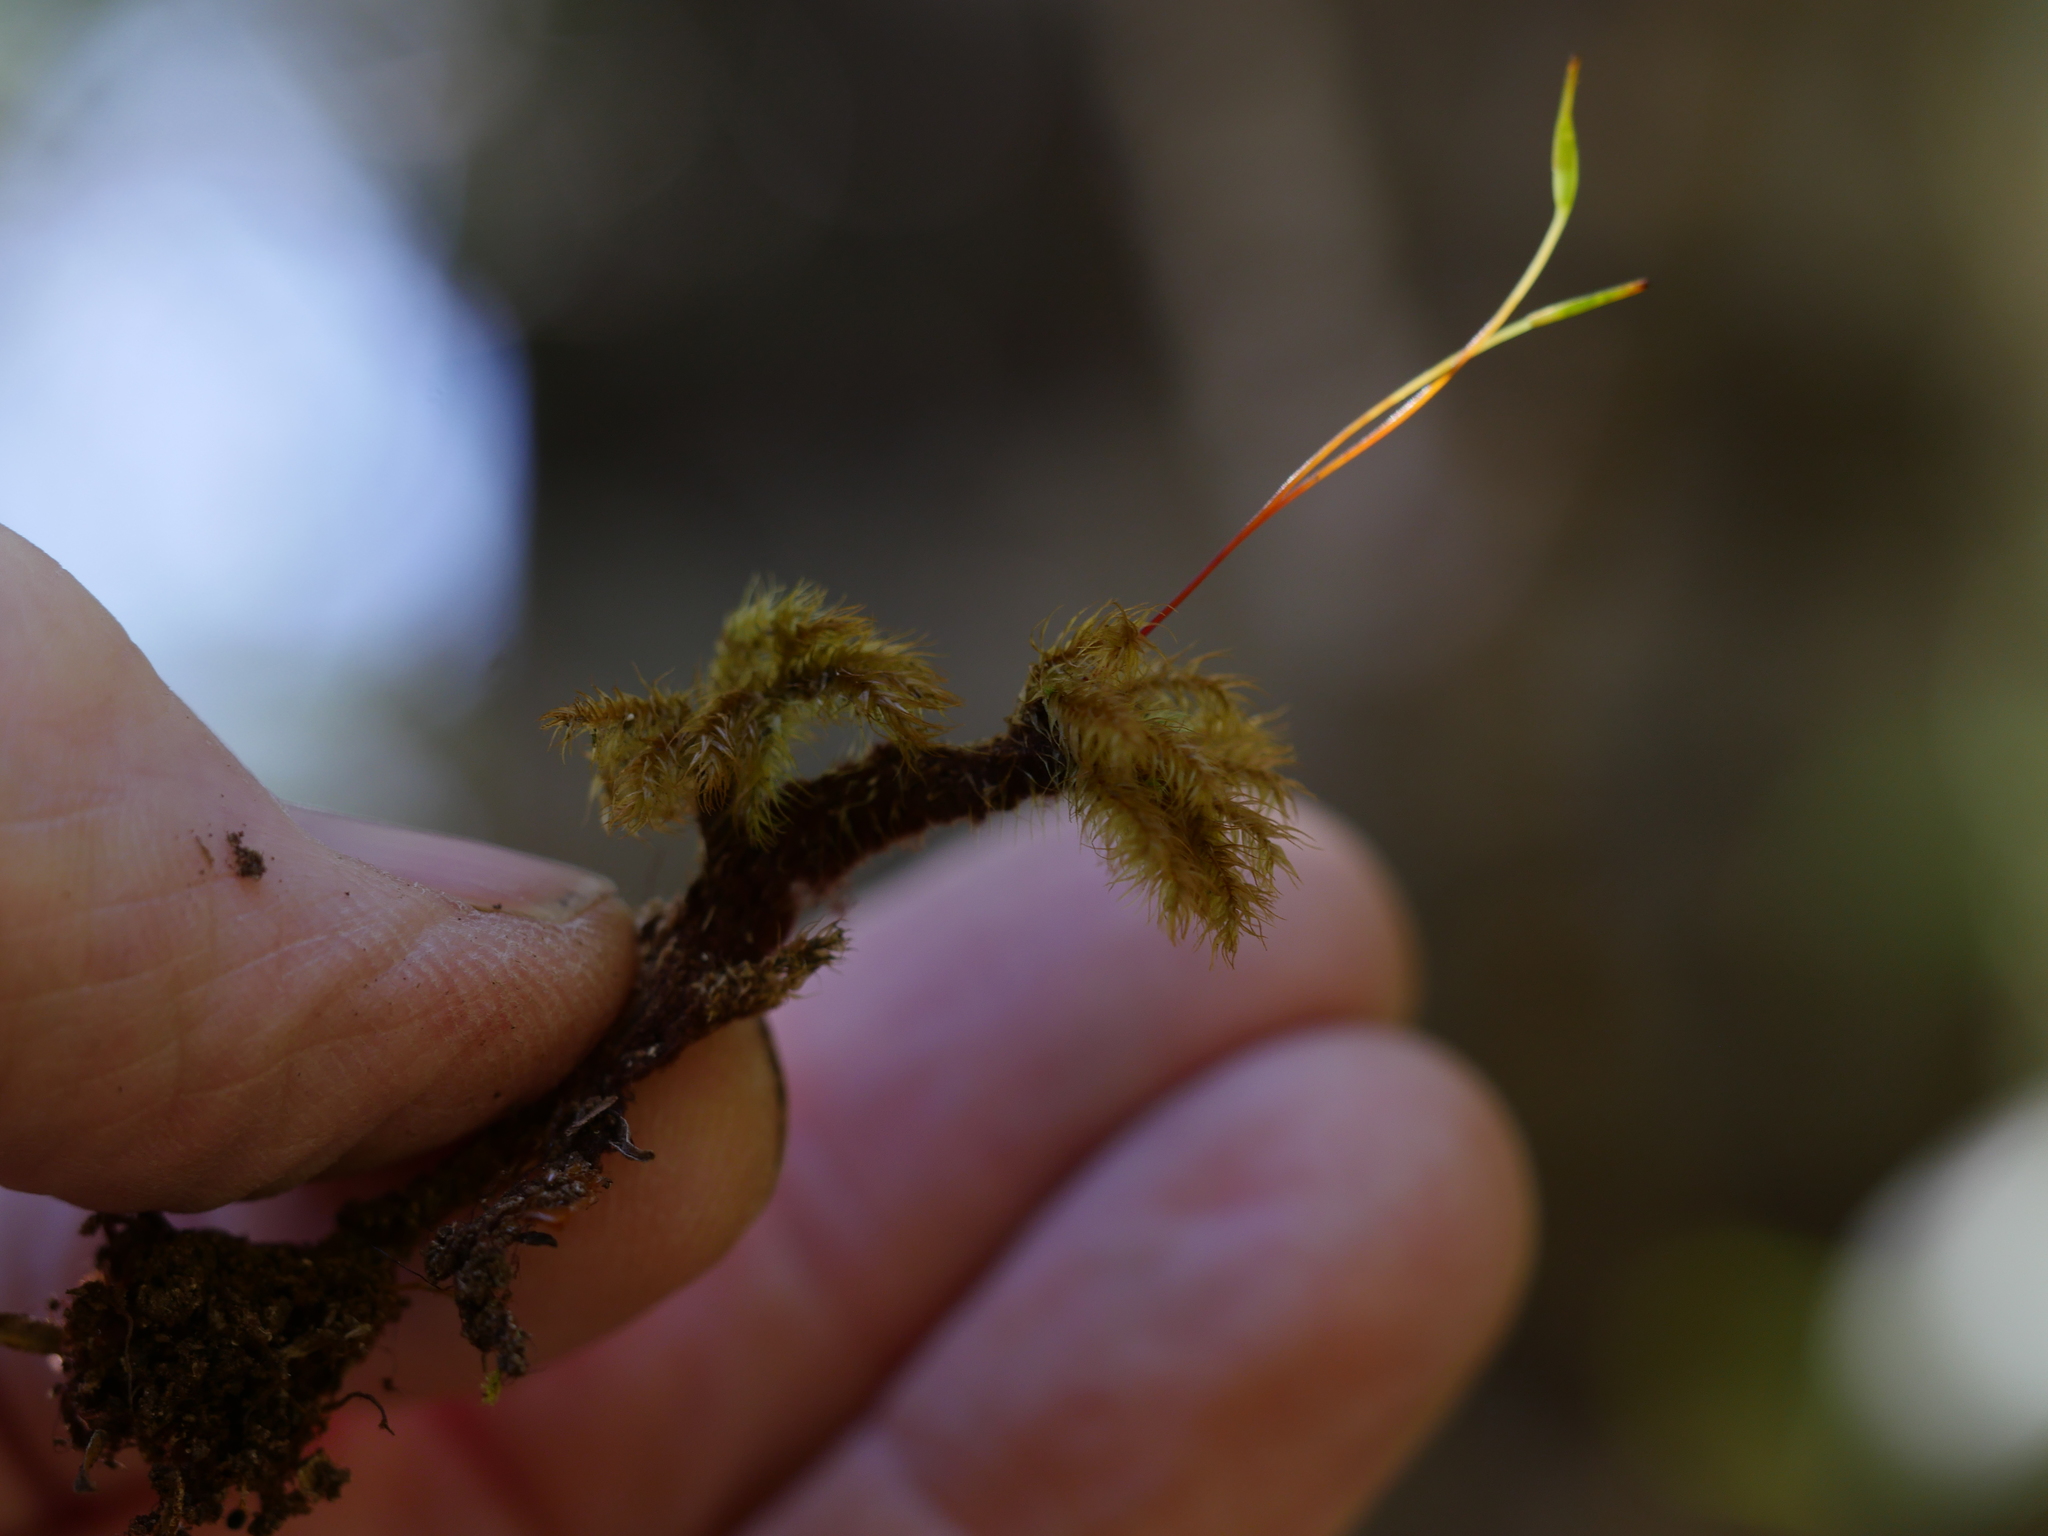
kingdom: Plantae
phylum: Bryophyta
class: Bryopsida
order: Hypnodendrales
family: Spiridentaceae
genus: Mniodendron
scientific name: Mniodendron colensoi
